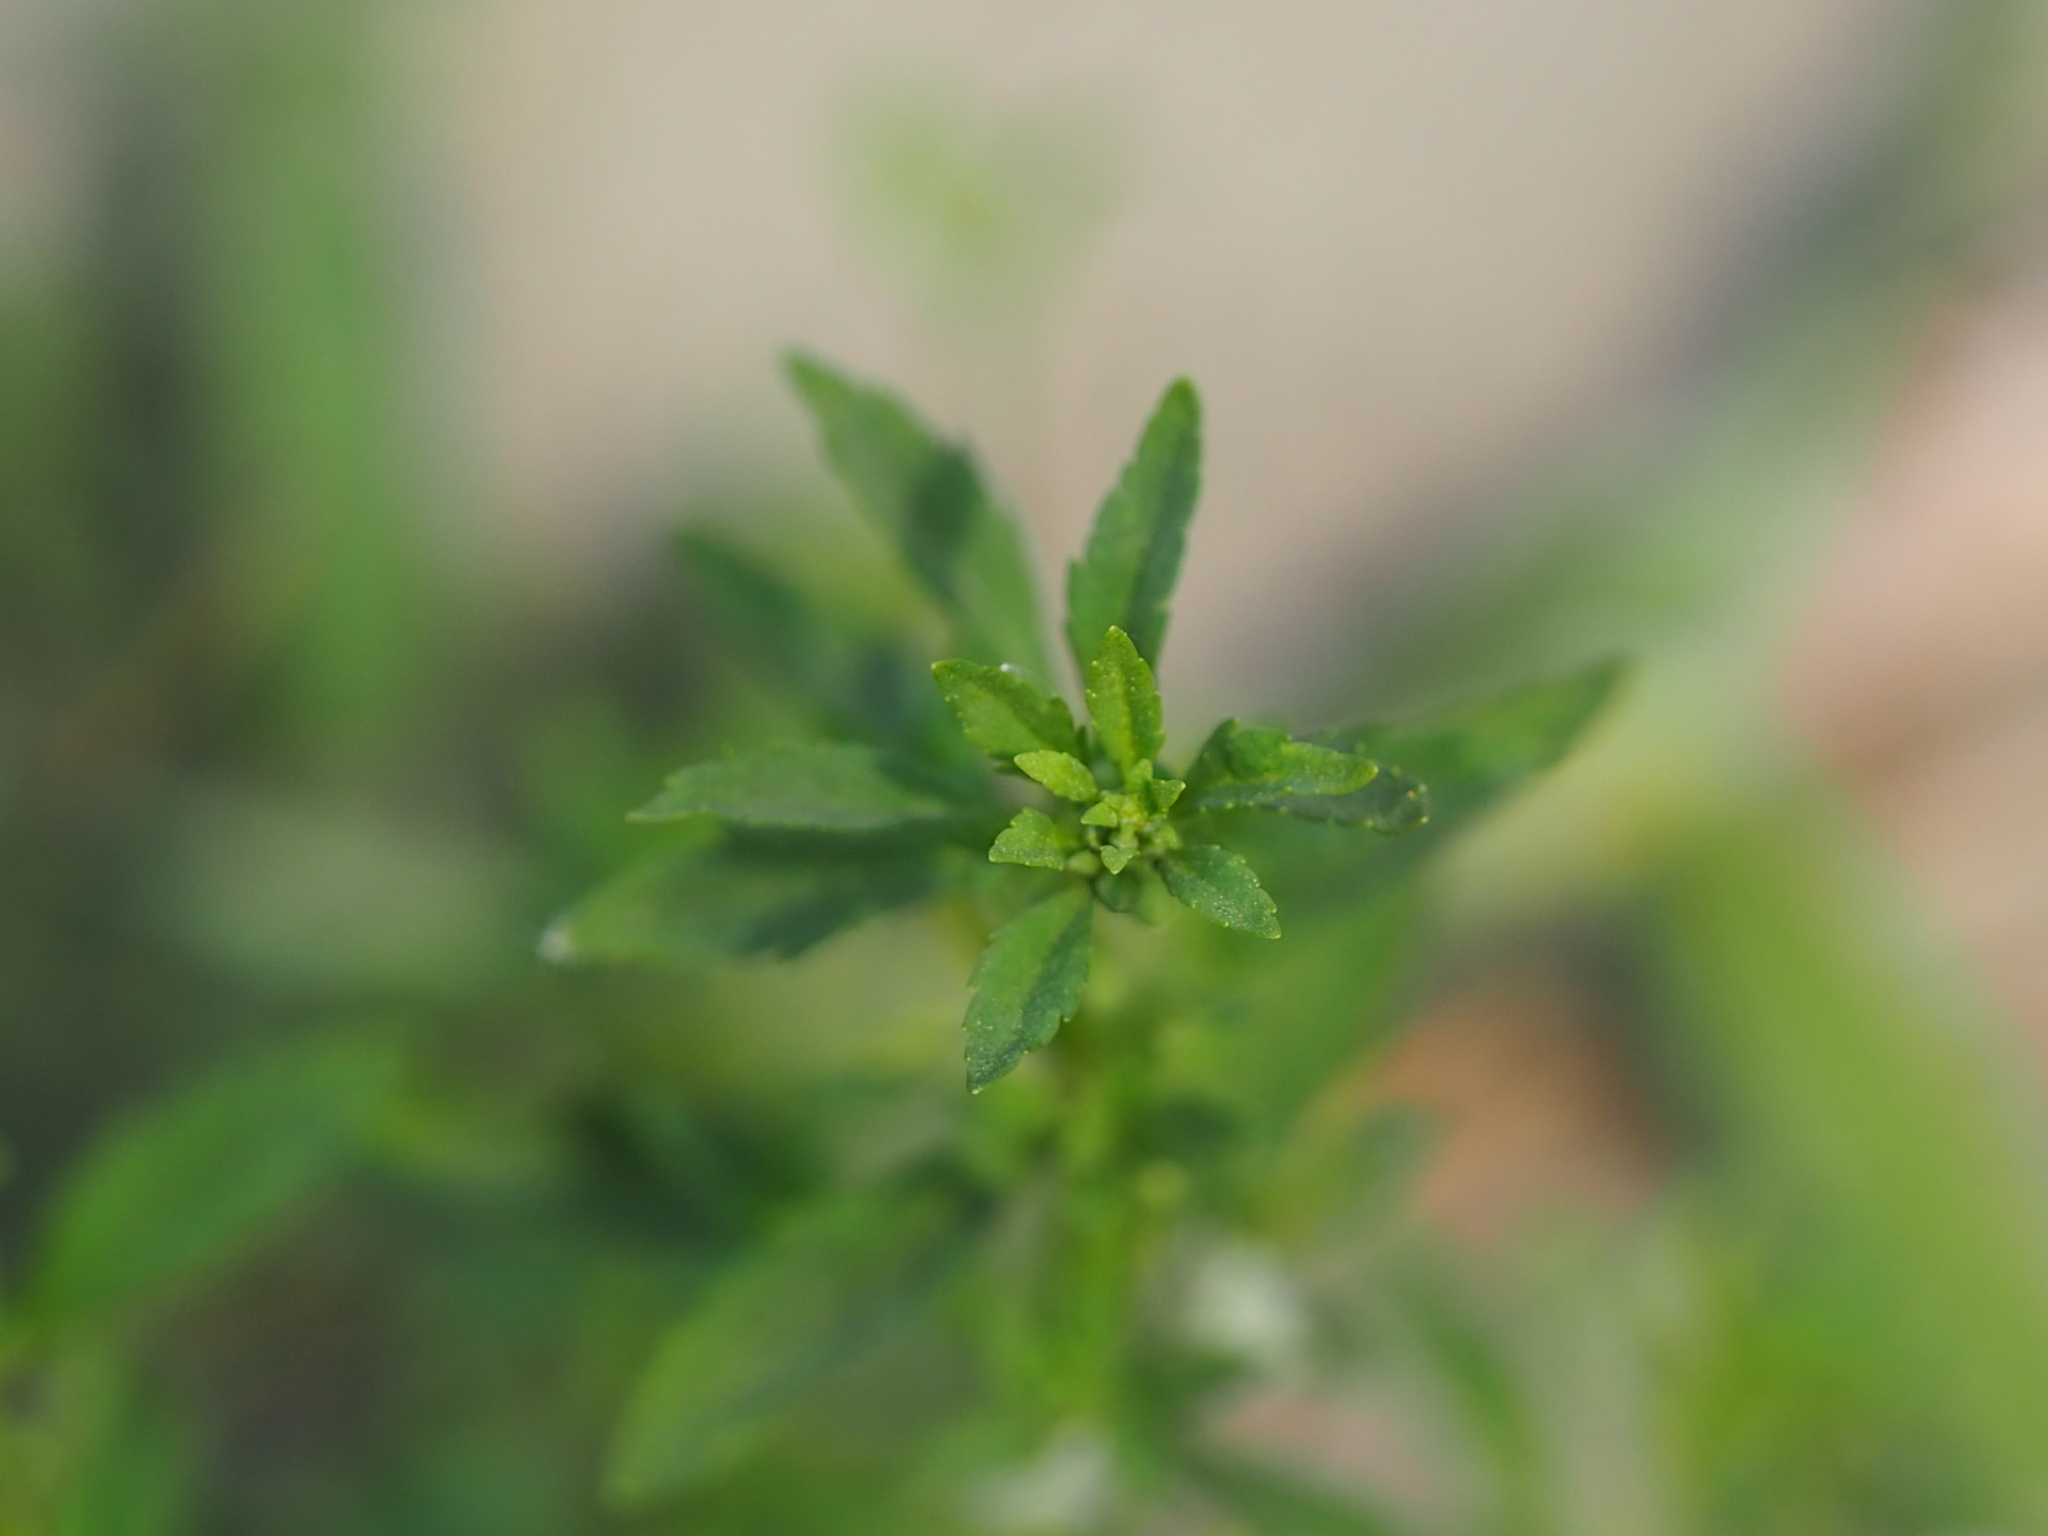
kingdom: Plantae
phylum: Tracheophyta
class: Magnoliopsida
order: Lamiales
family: Plantaginaceae
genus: Scoparia
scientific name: Scoparia dulcis
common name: Scoparia-weed
